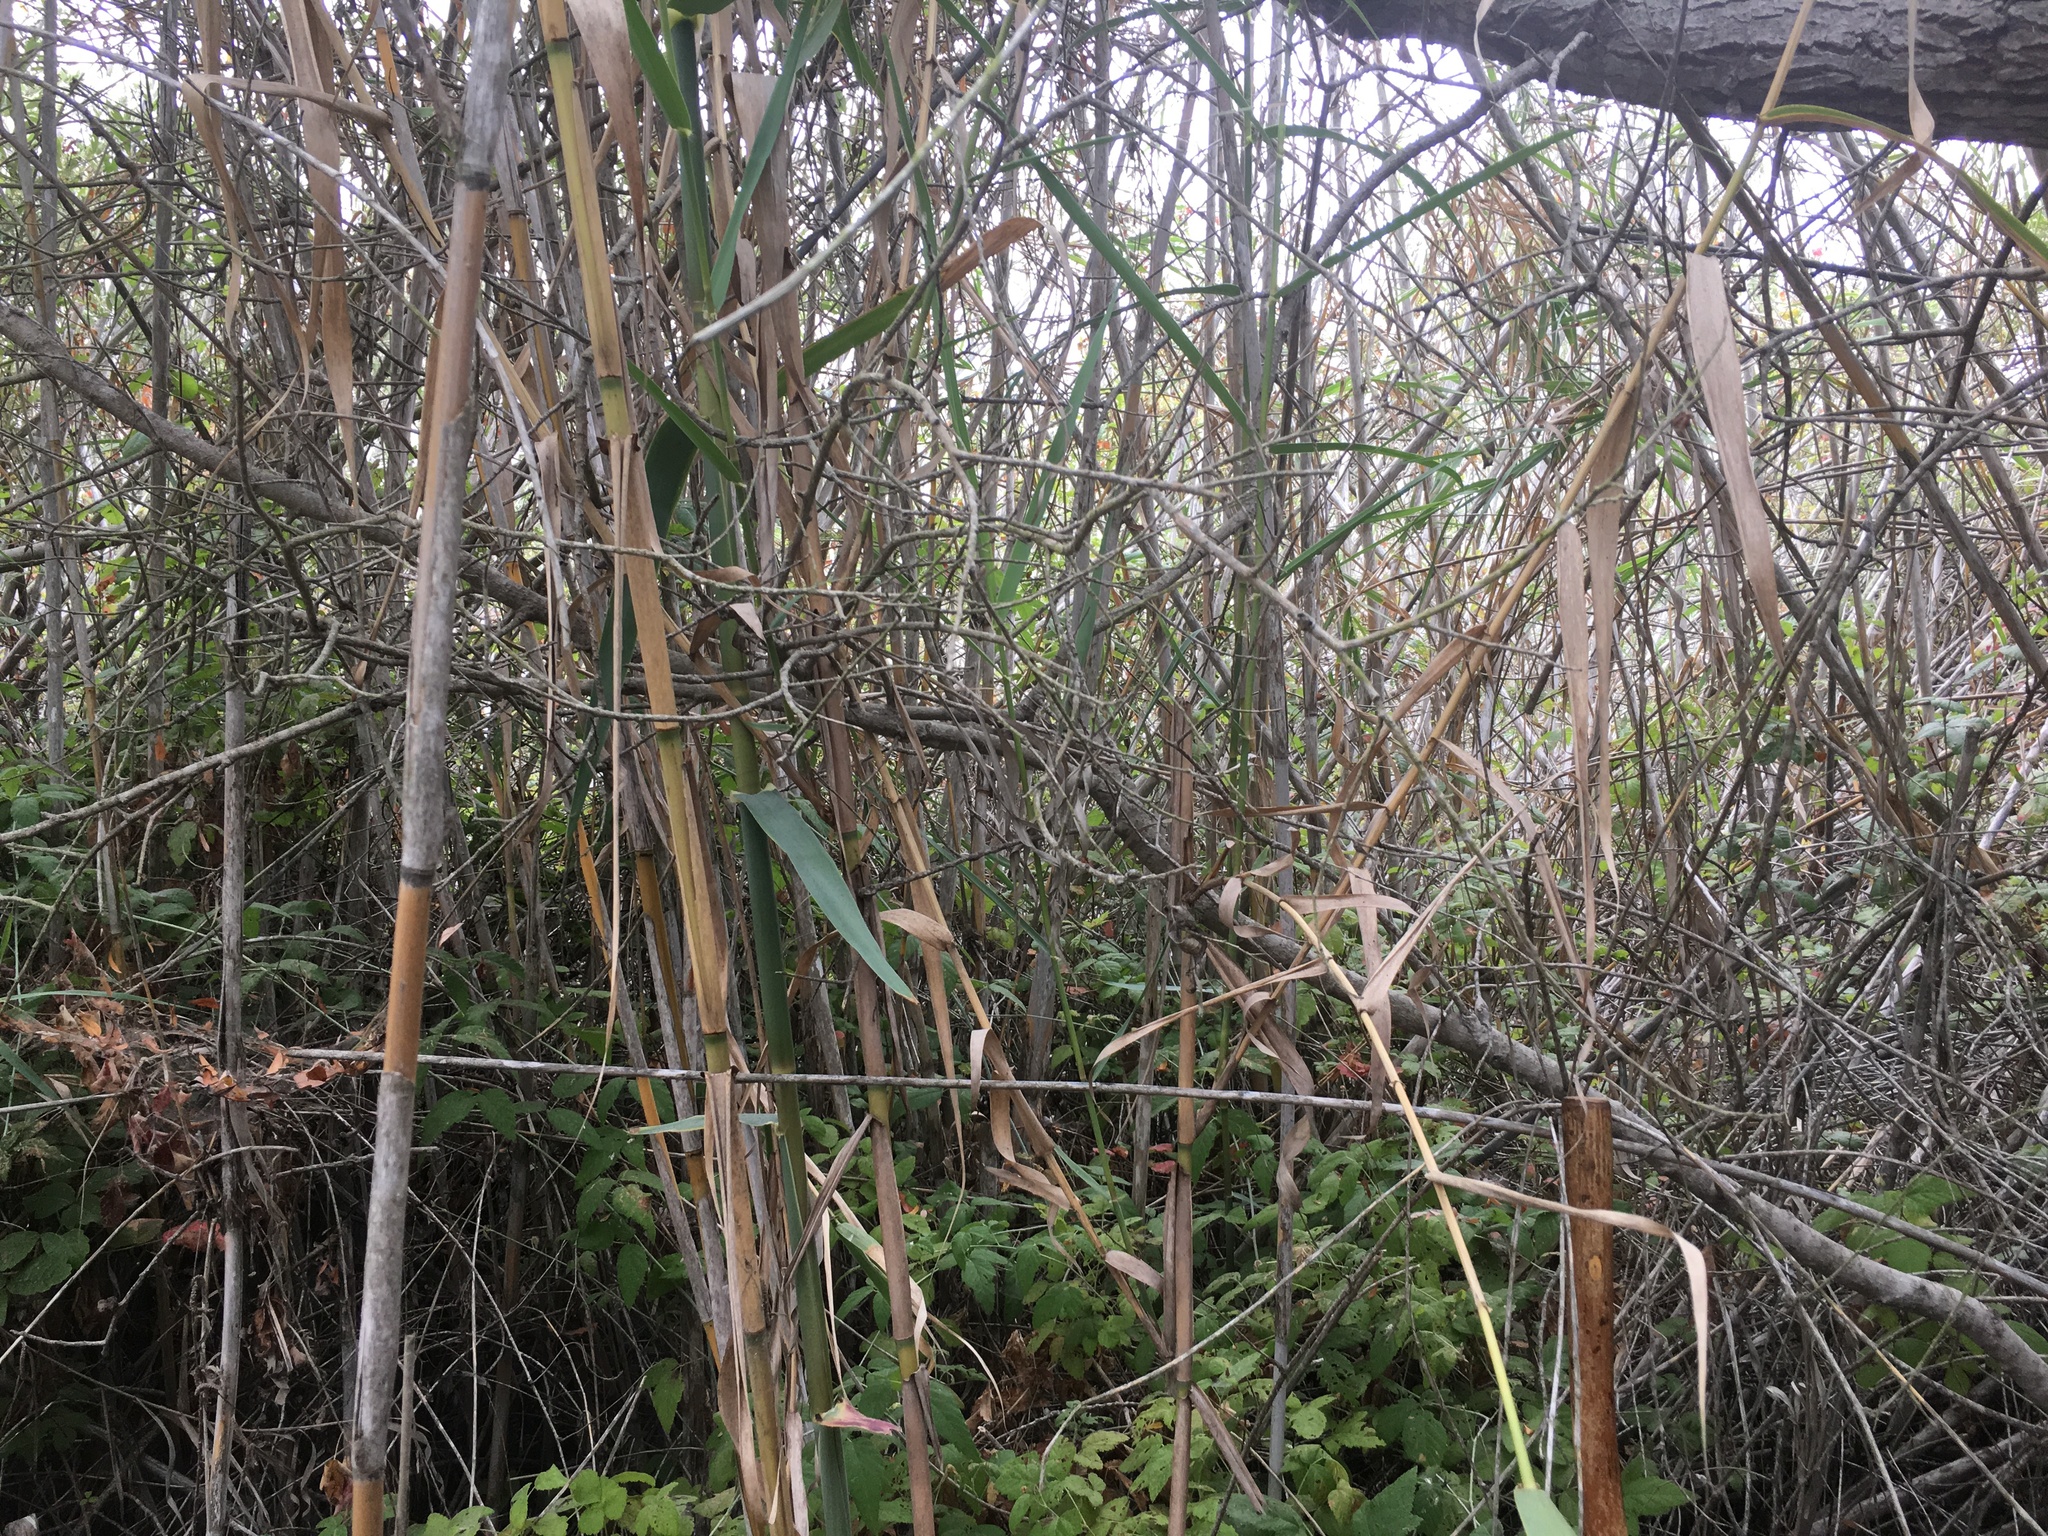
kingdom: Plantae
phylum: Tracheophyta
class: Magnoliopsida
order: Rosales
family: Rosaceae
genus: Rubus
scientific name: Rubus ursinus
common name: Pacific blackberry
